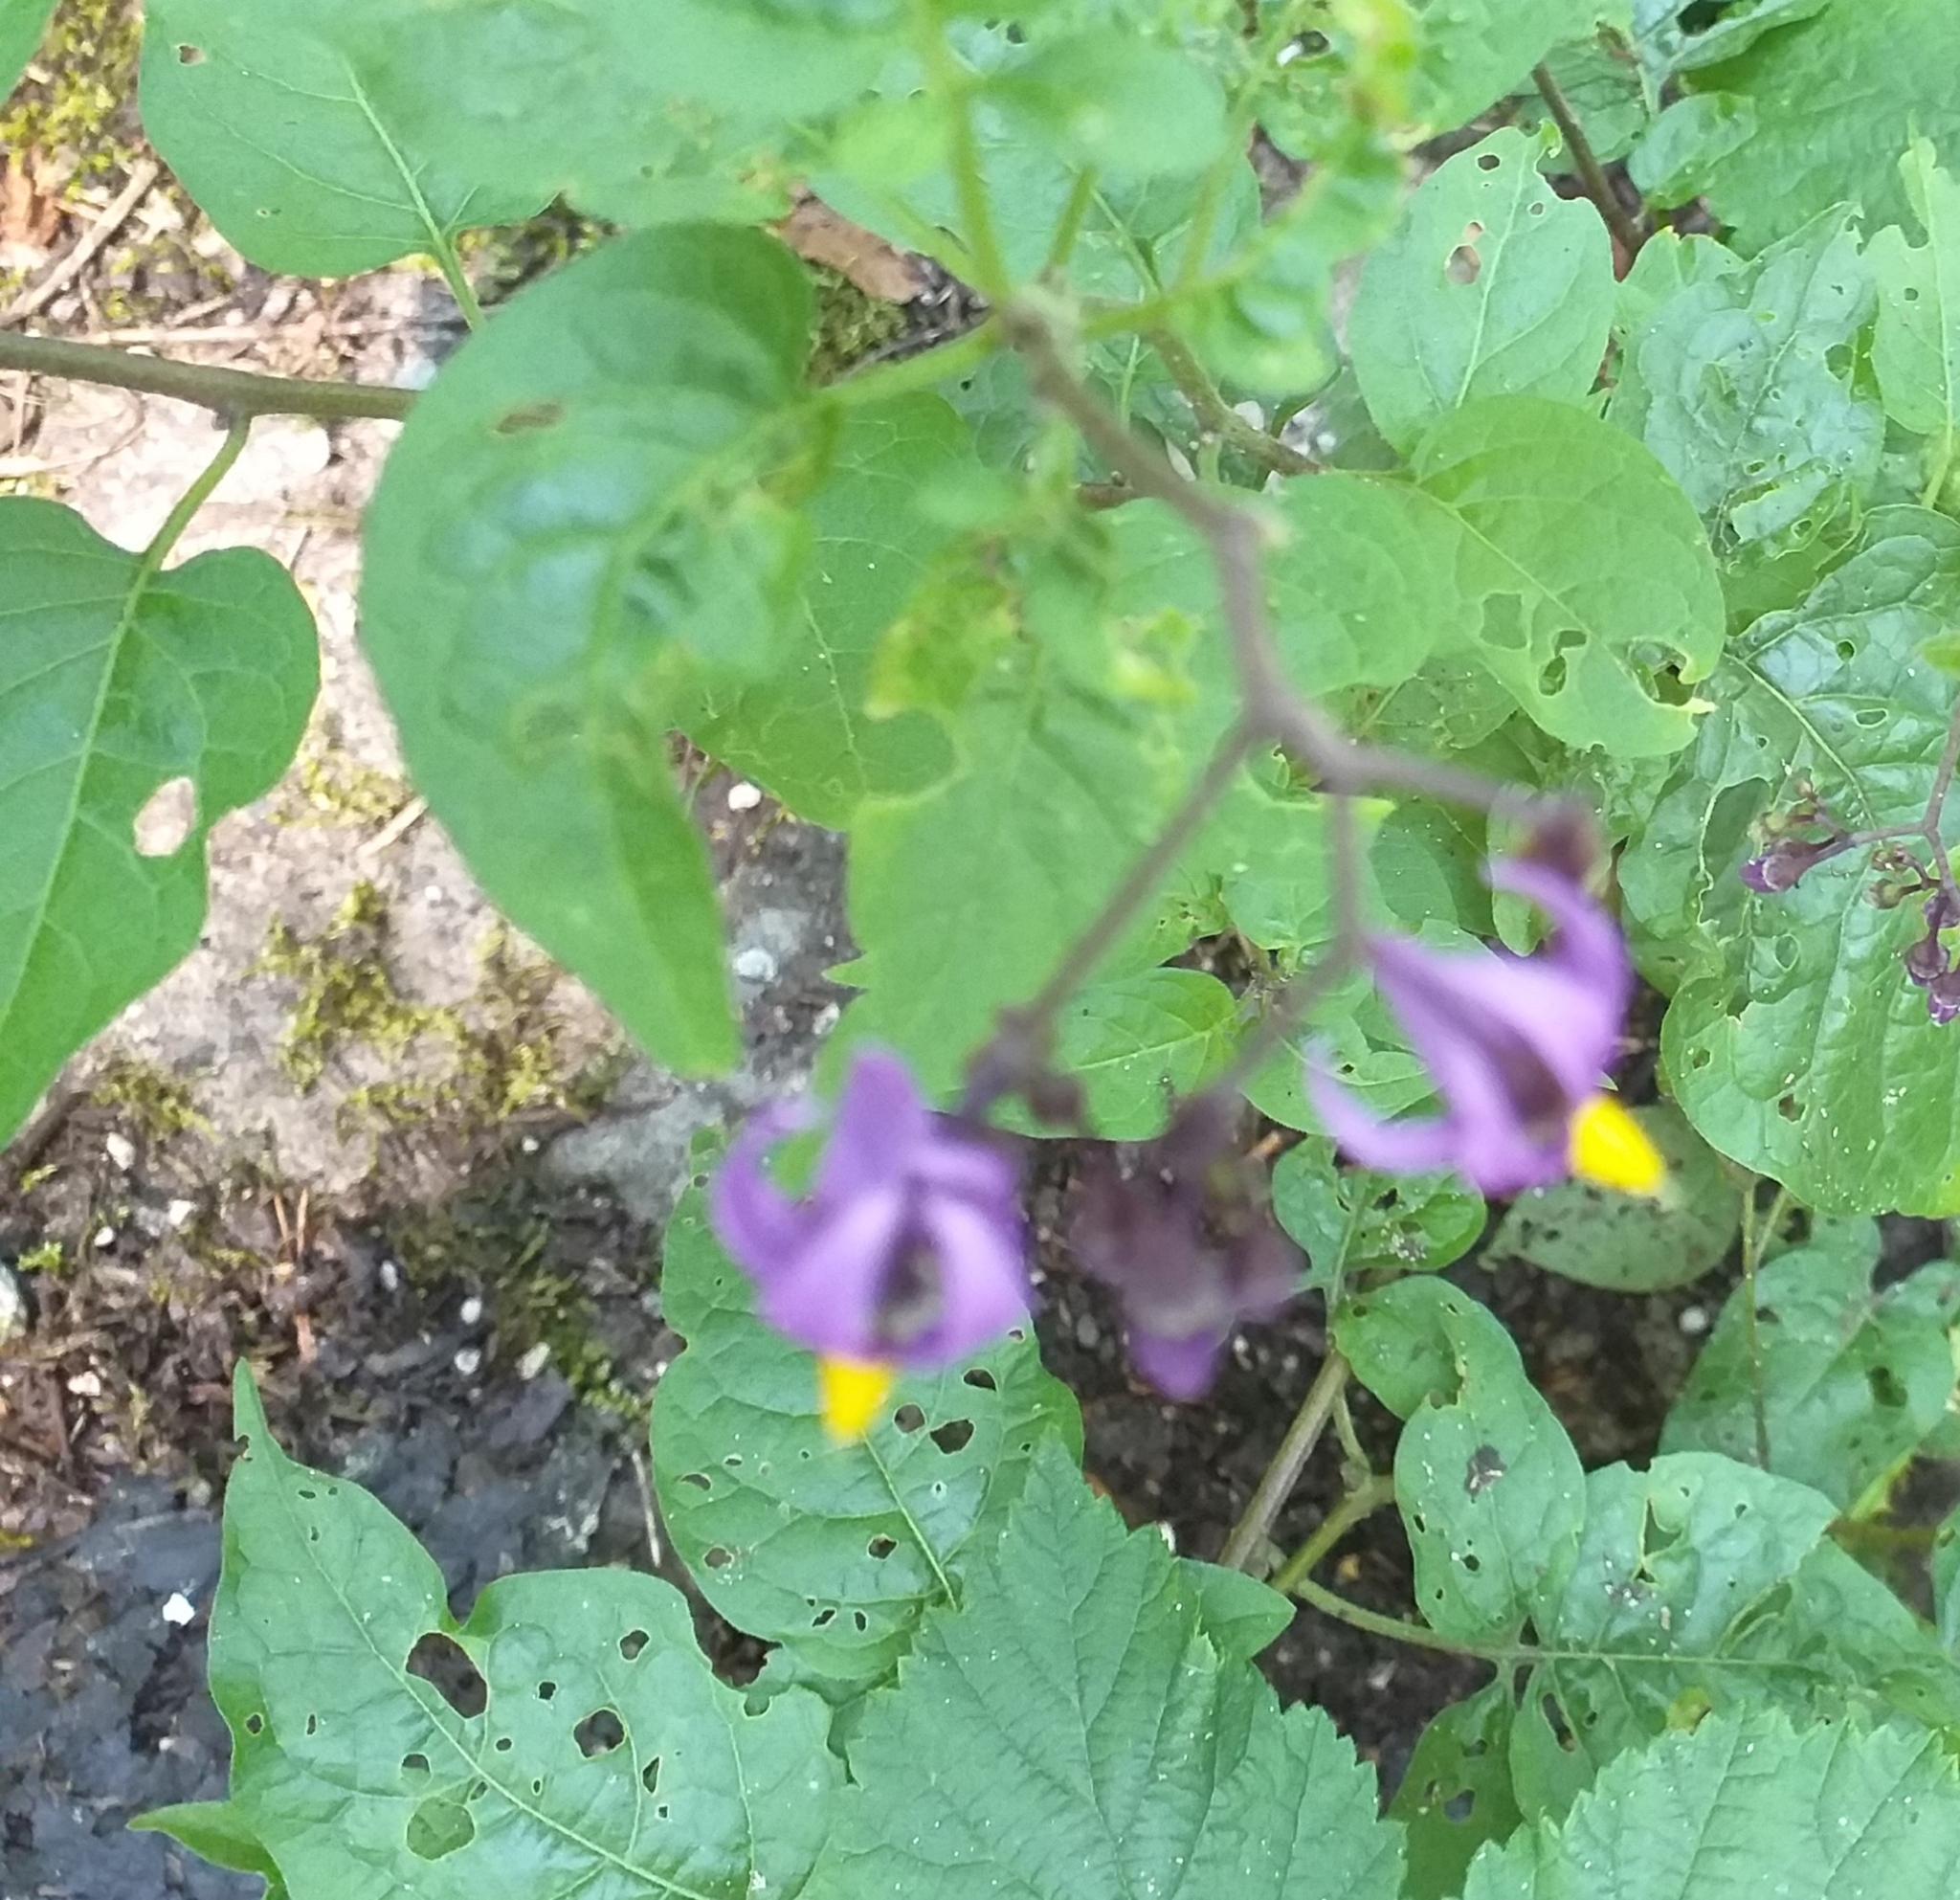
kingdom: Plantae
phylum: Tracheophyta
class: Magnoliopsida
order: Solanales
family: Solanaceae
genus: Solanum
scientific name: Solanum dulcamara
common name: Climbing nightshade
